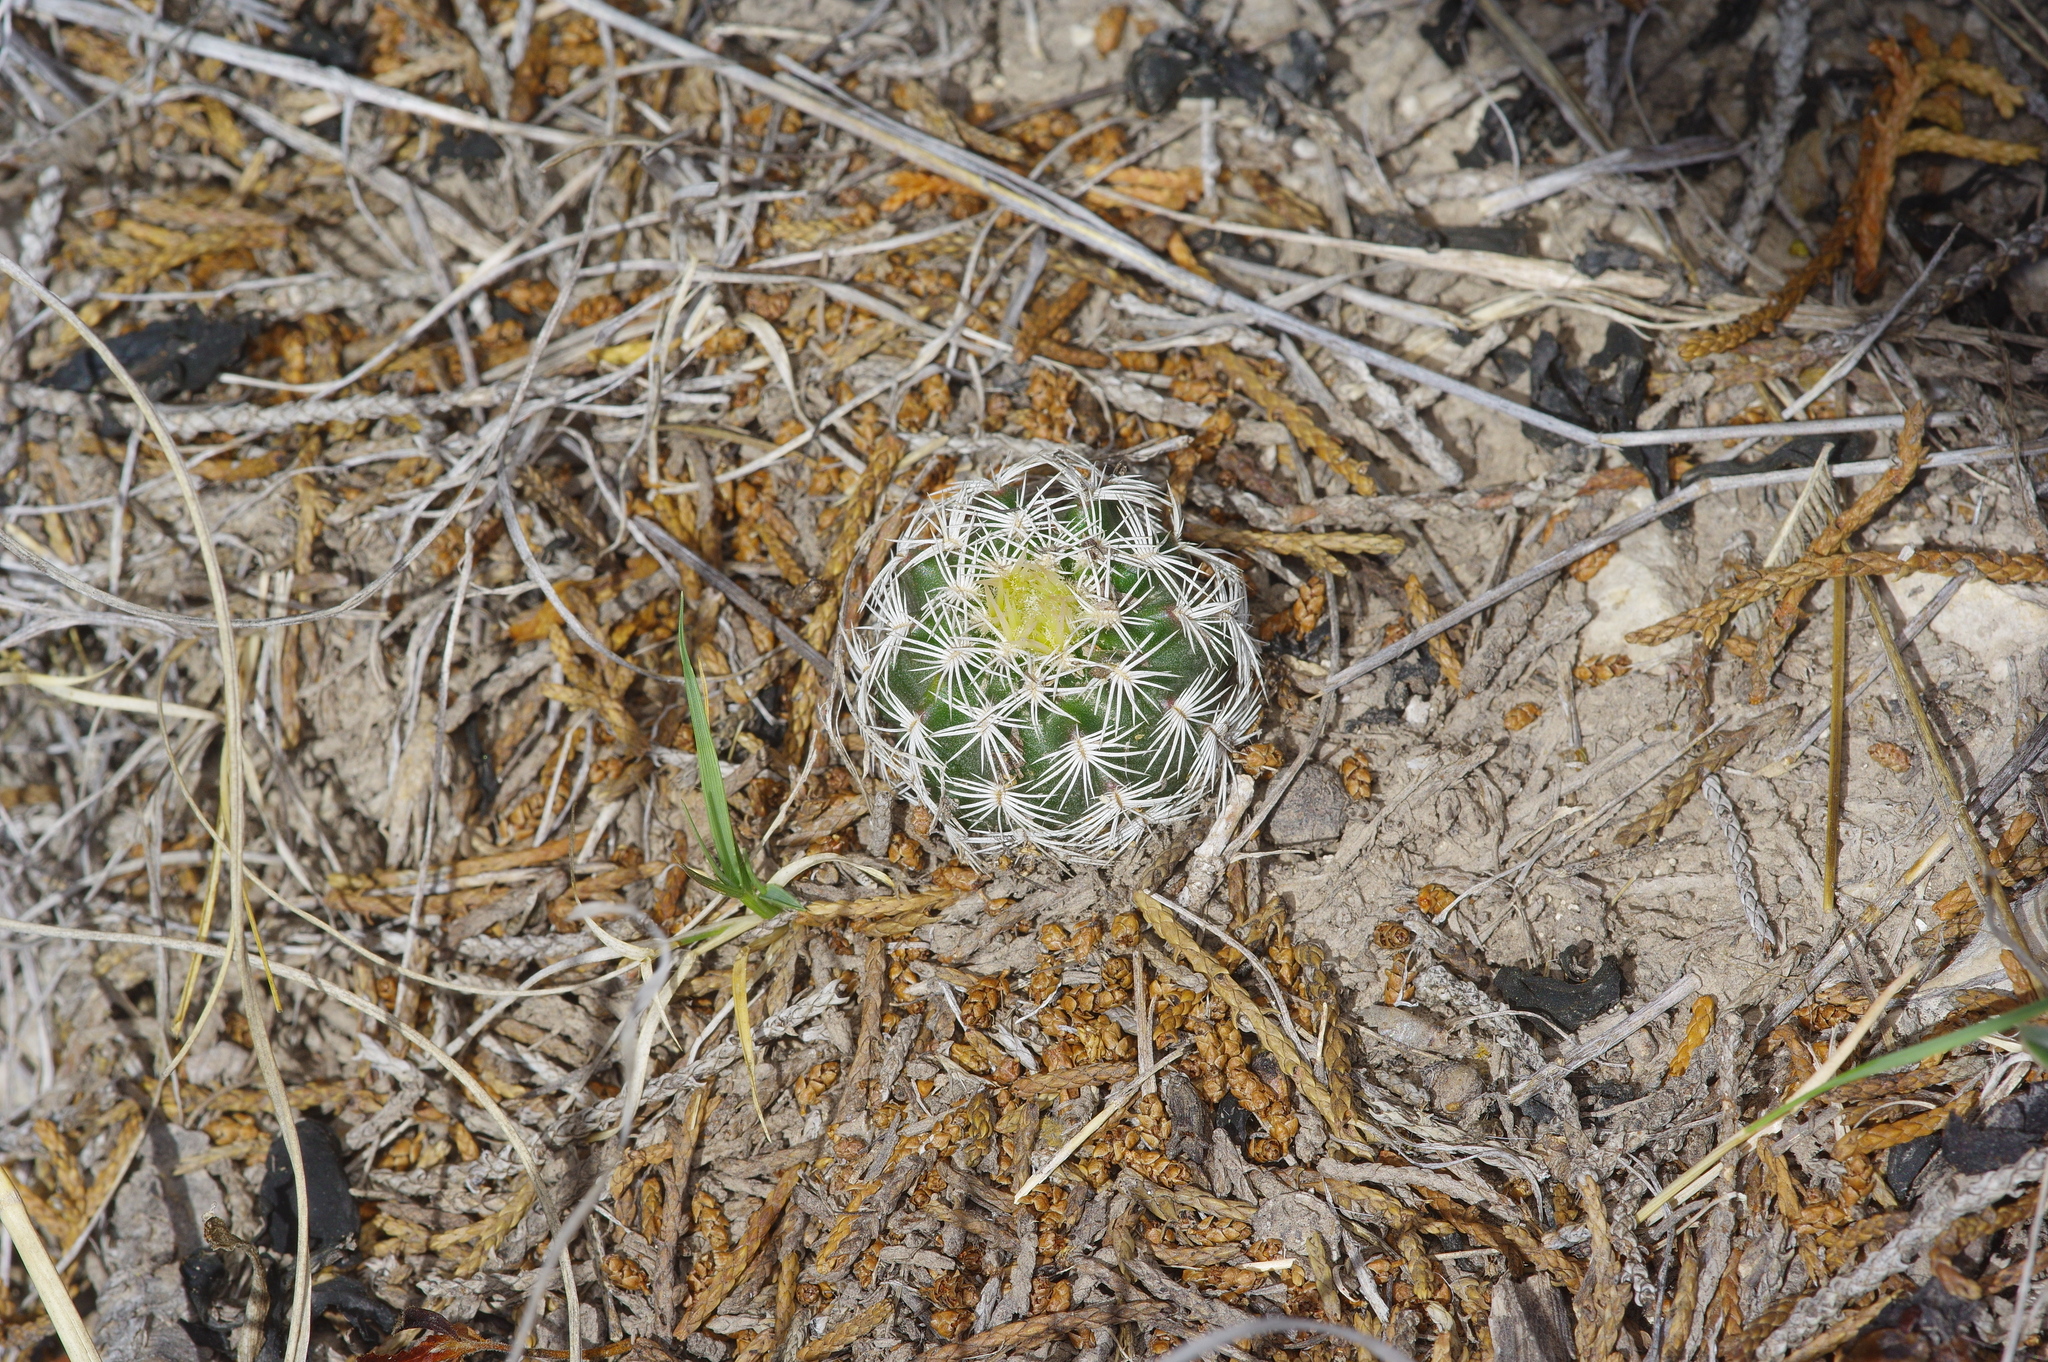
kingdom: Plantae
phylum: Tracheophyta
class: Magnoliopsida
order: Caryophyllales
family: Cactaceae
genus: Echinocereus
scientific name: Echinocereus reichenbachii
